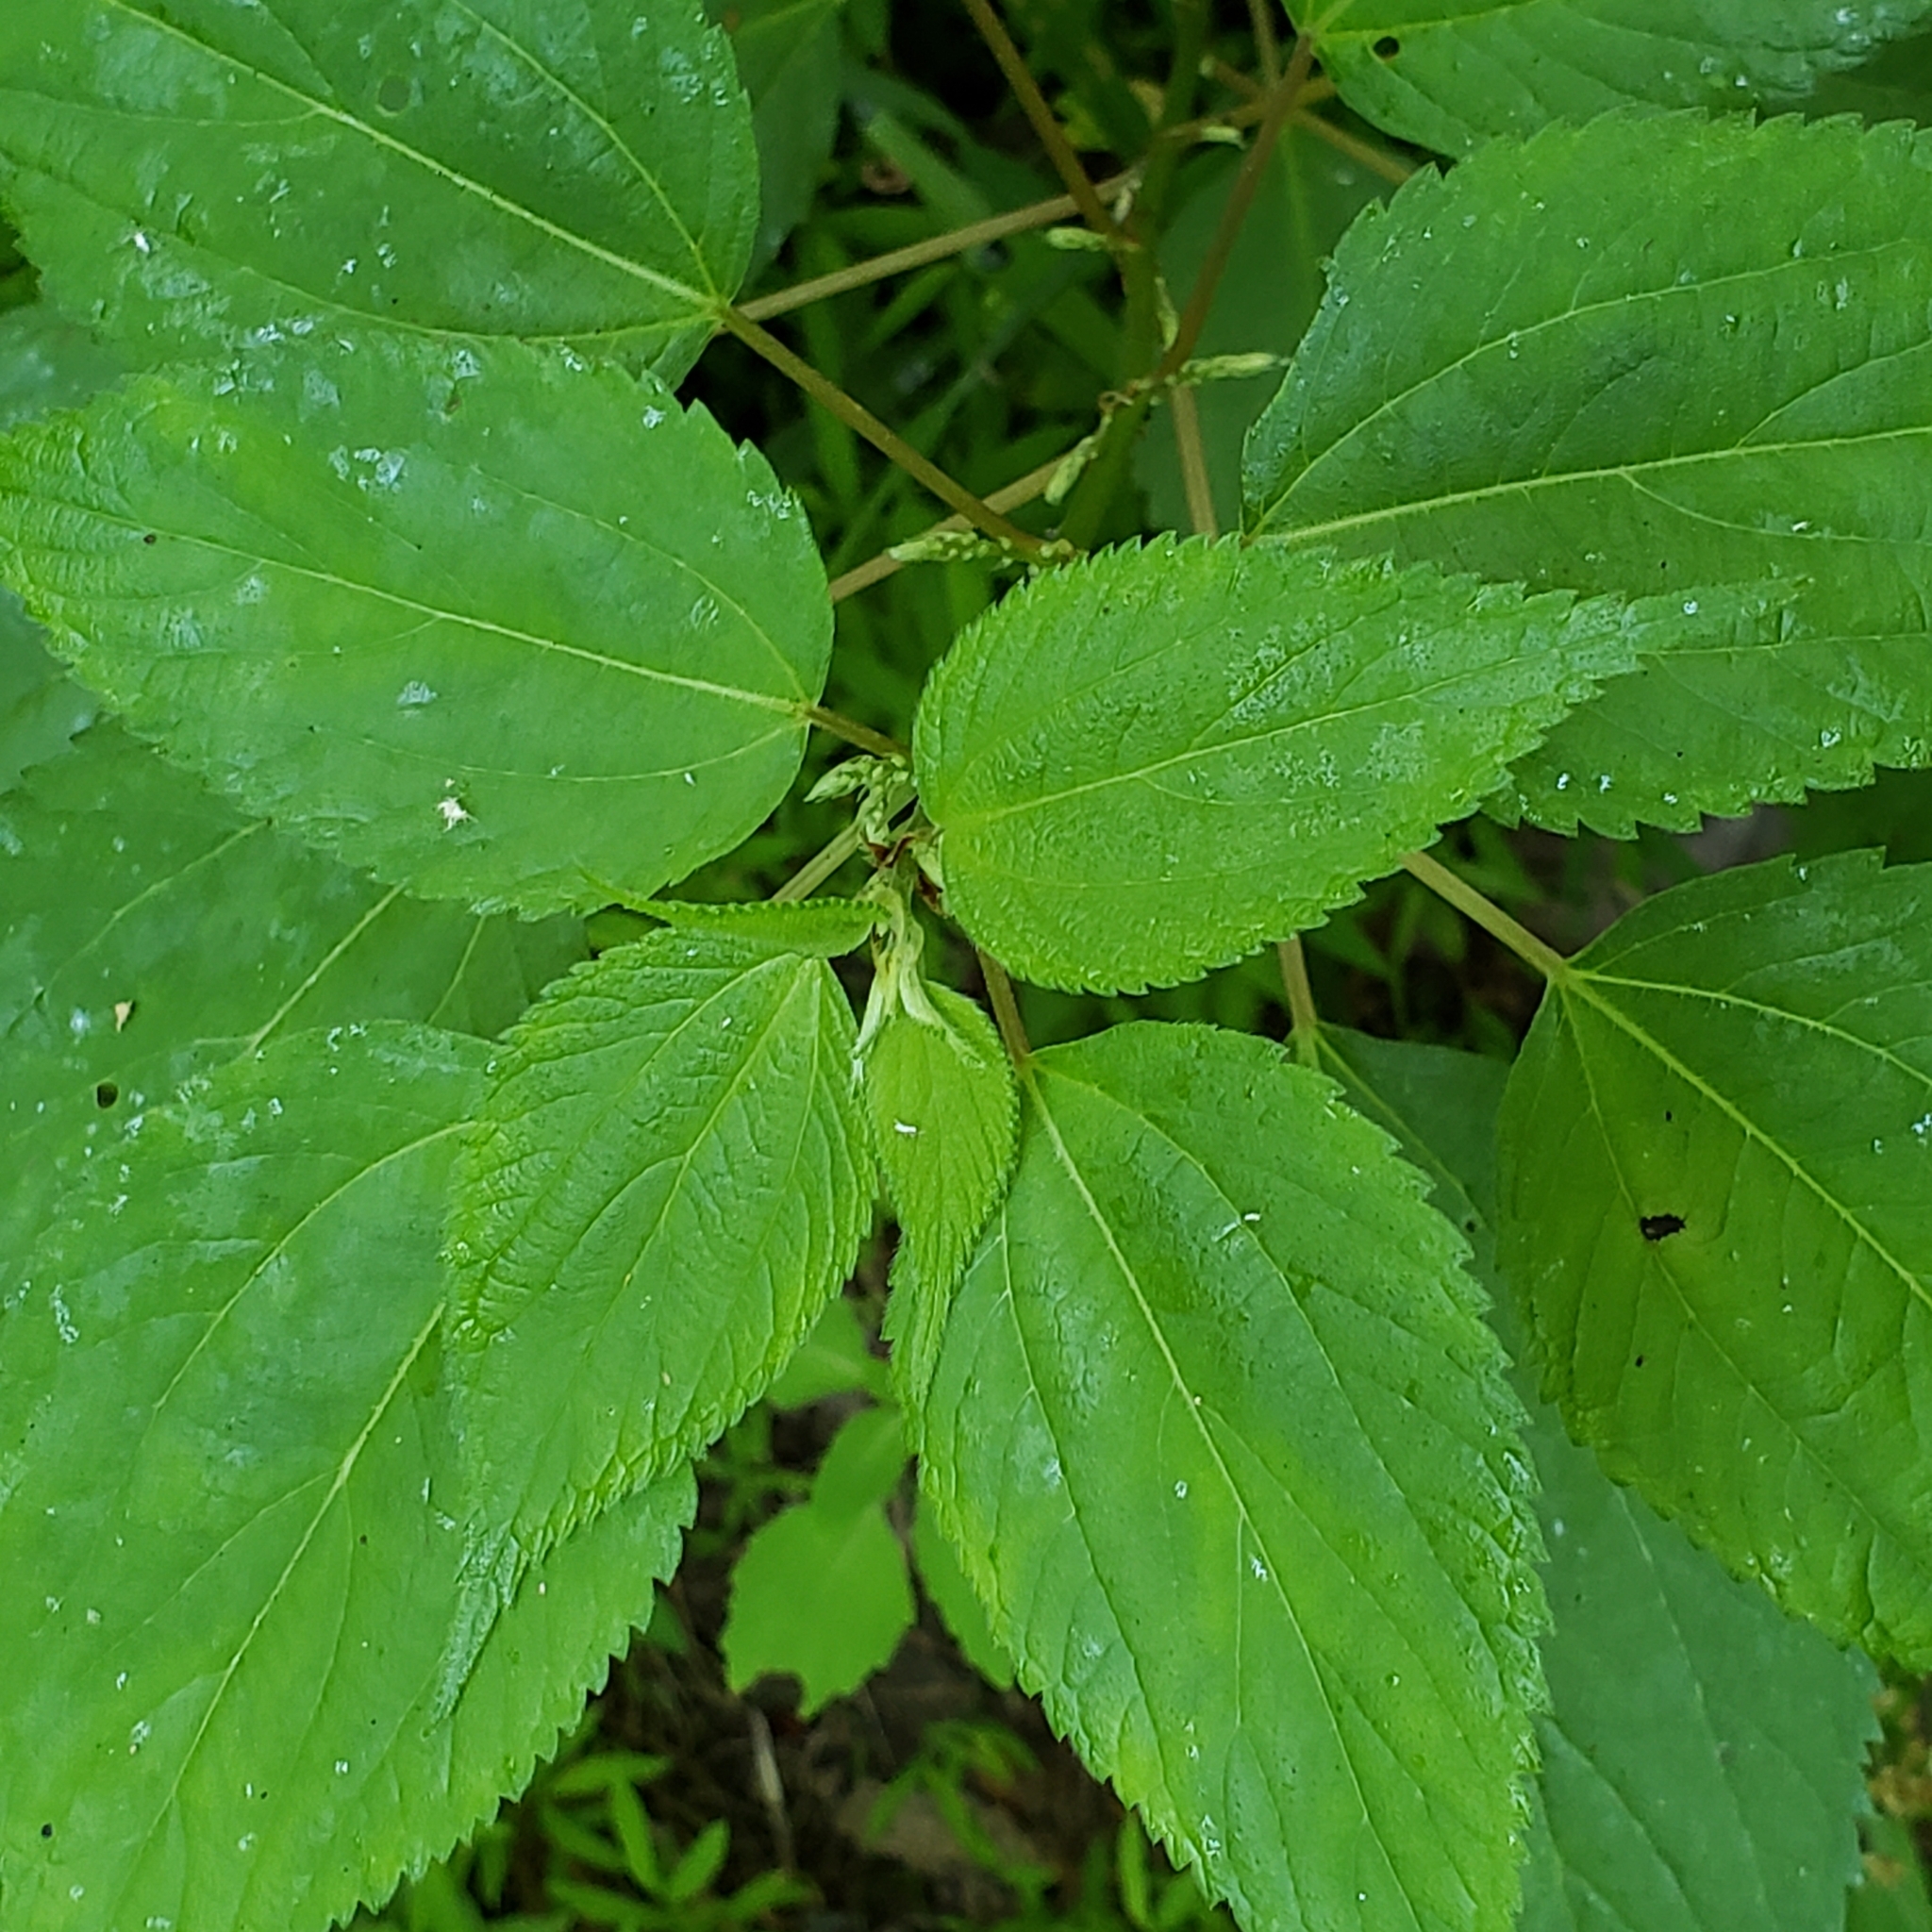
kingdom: Animalia
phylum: Arthropoda
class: Insecta
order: Lepidoptera
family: Tortricidae
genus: Ancylis
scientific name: Ancylis muricana
